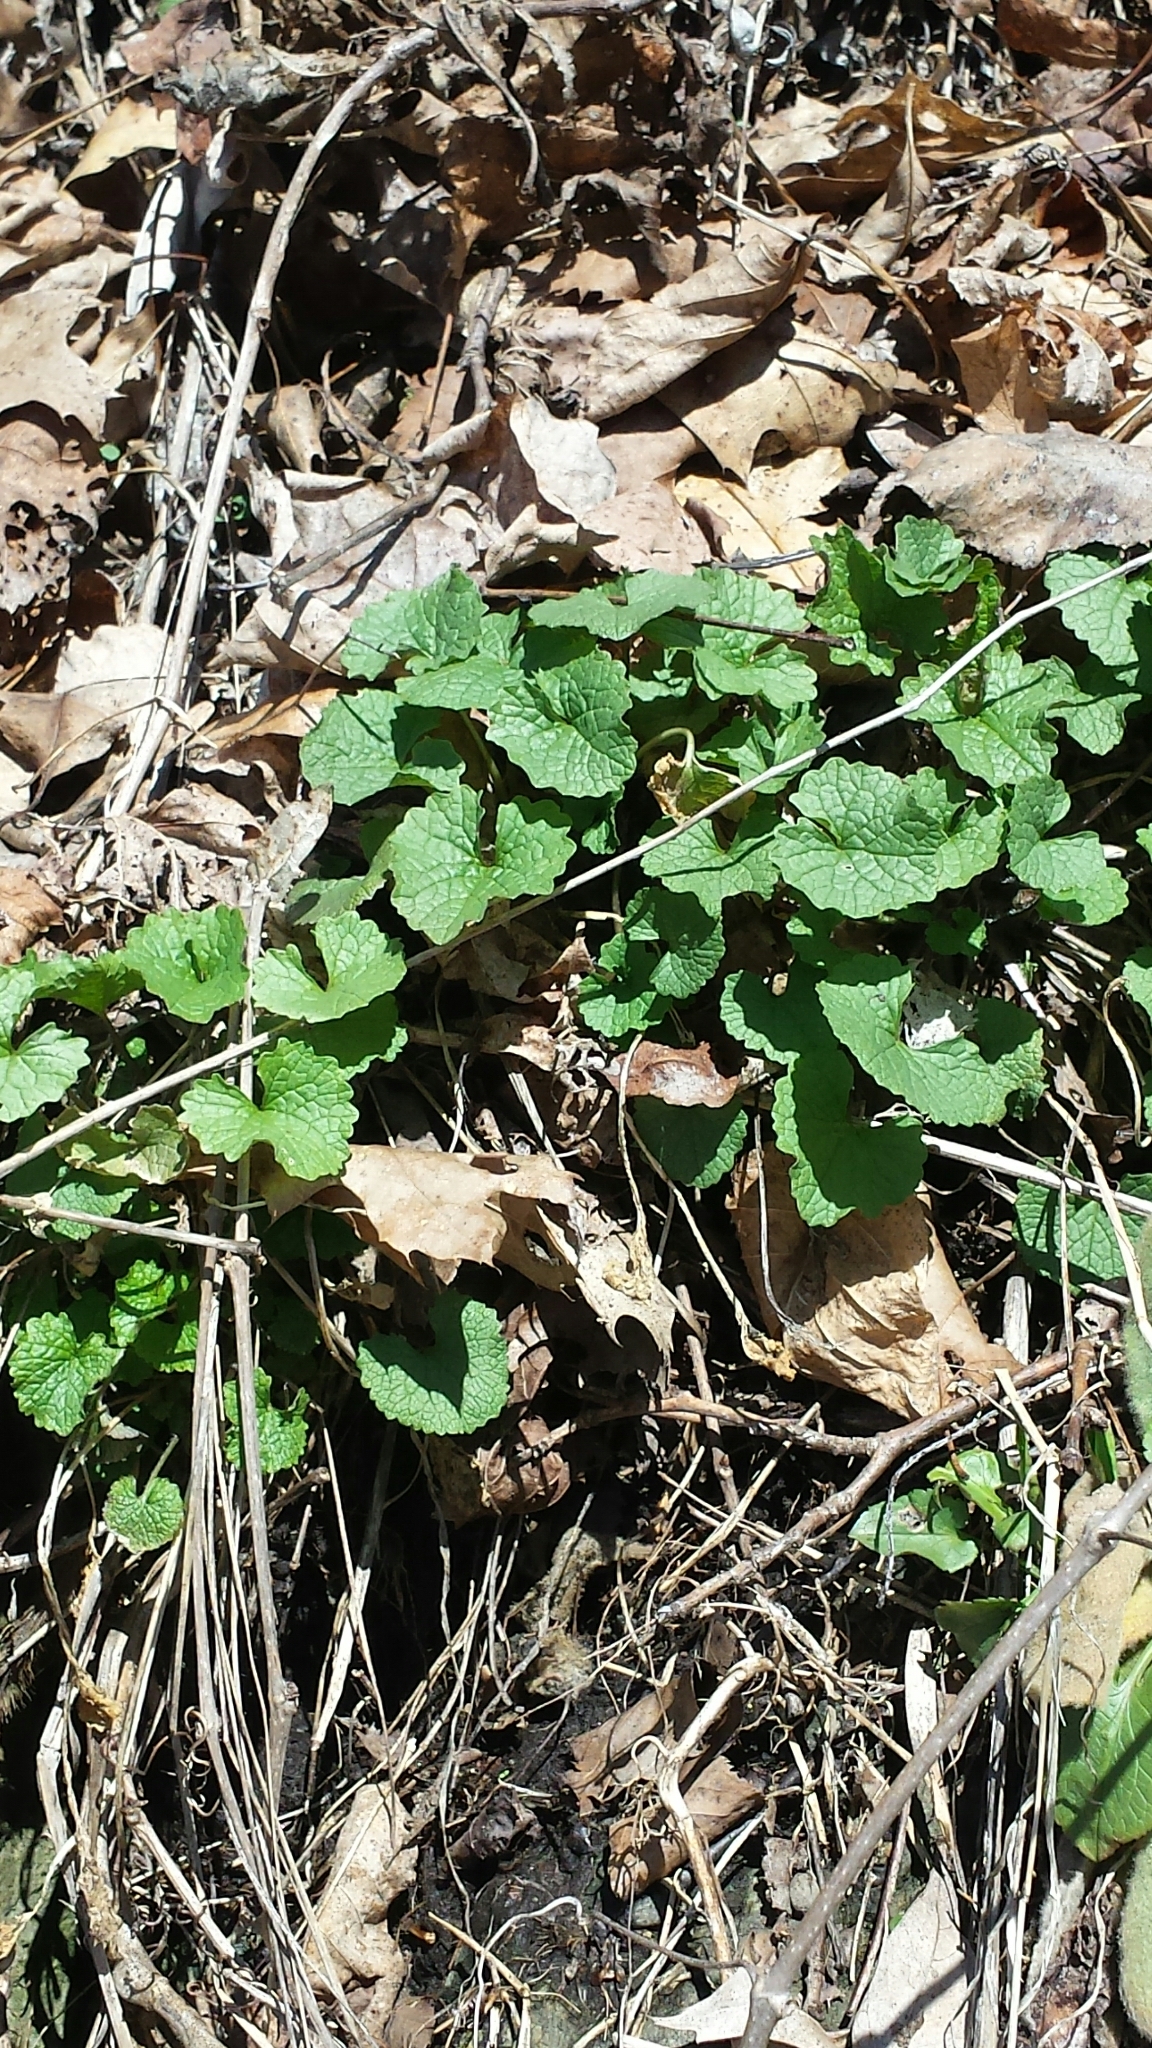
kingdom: Plantae
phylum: Tracheophyta
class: Magnoliopsida
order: Brassicales
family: Brassicaceae
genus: Alliaria
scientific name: Alliaria petiolata
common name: Garlic mustard
